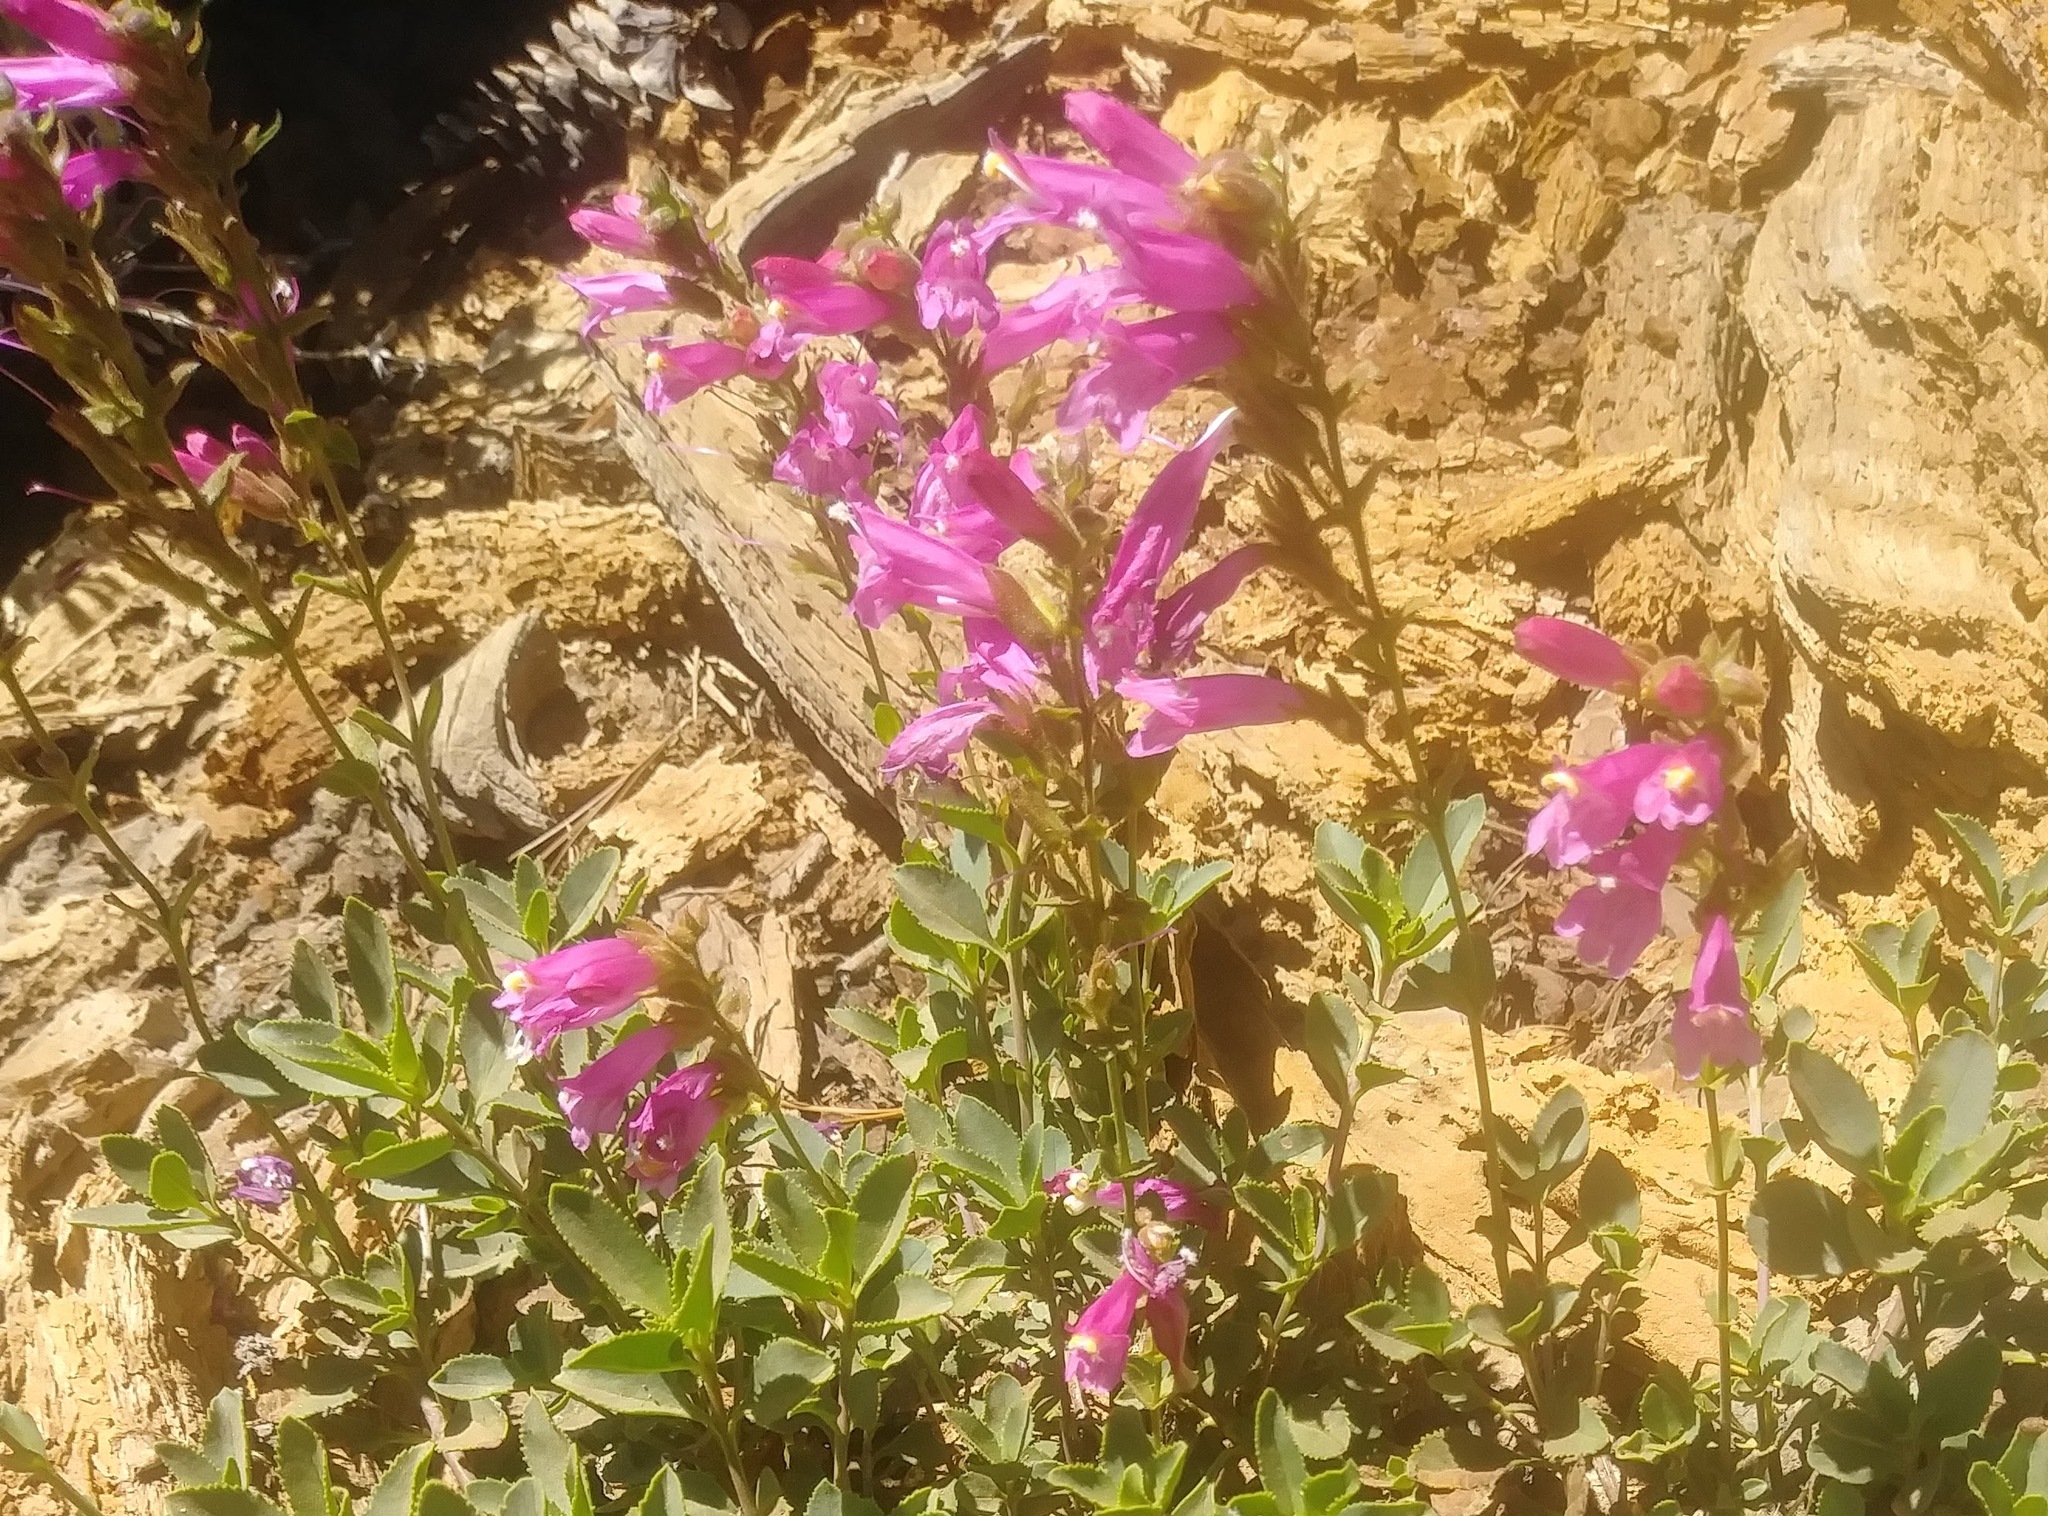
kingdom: Plantae
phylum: Tracheophyta
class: Magnoliopsida
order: Lamiales
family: Plantaginaceae
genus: Penstemon
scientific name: Penstemon newberryi
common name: Mountain-pride
